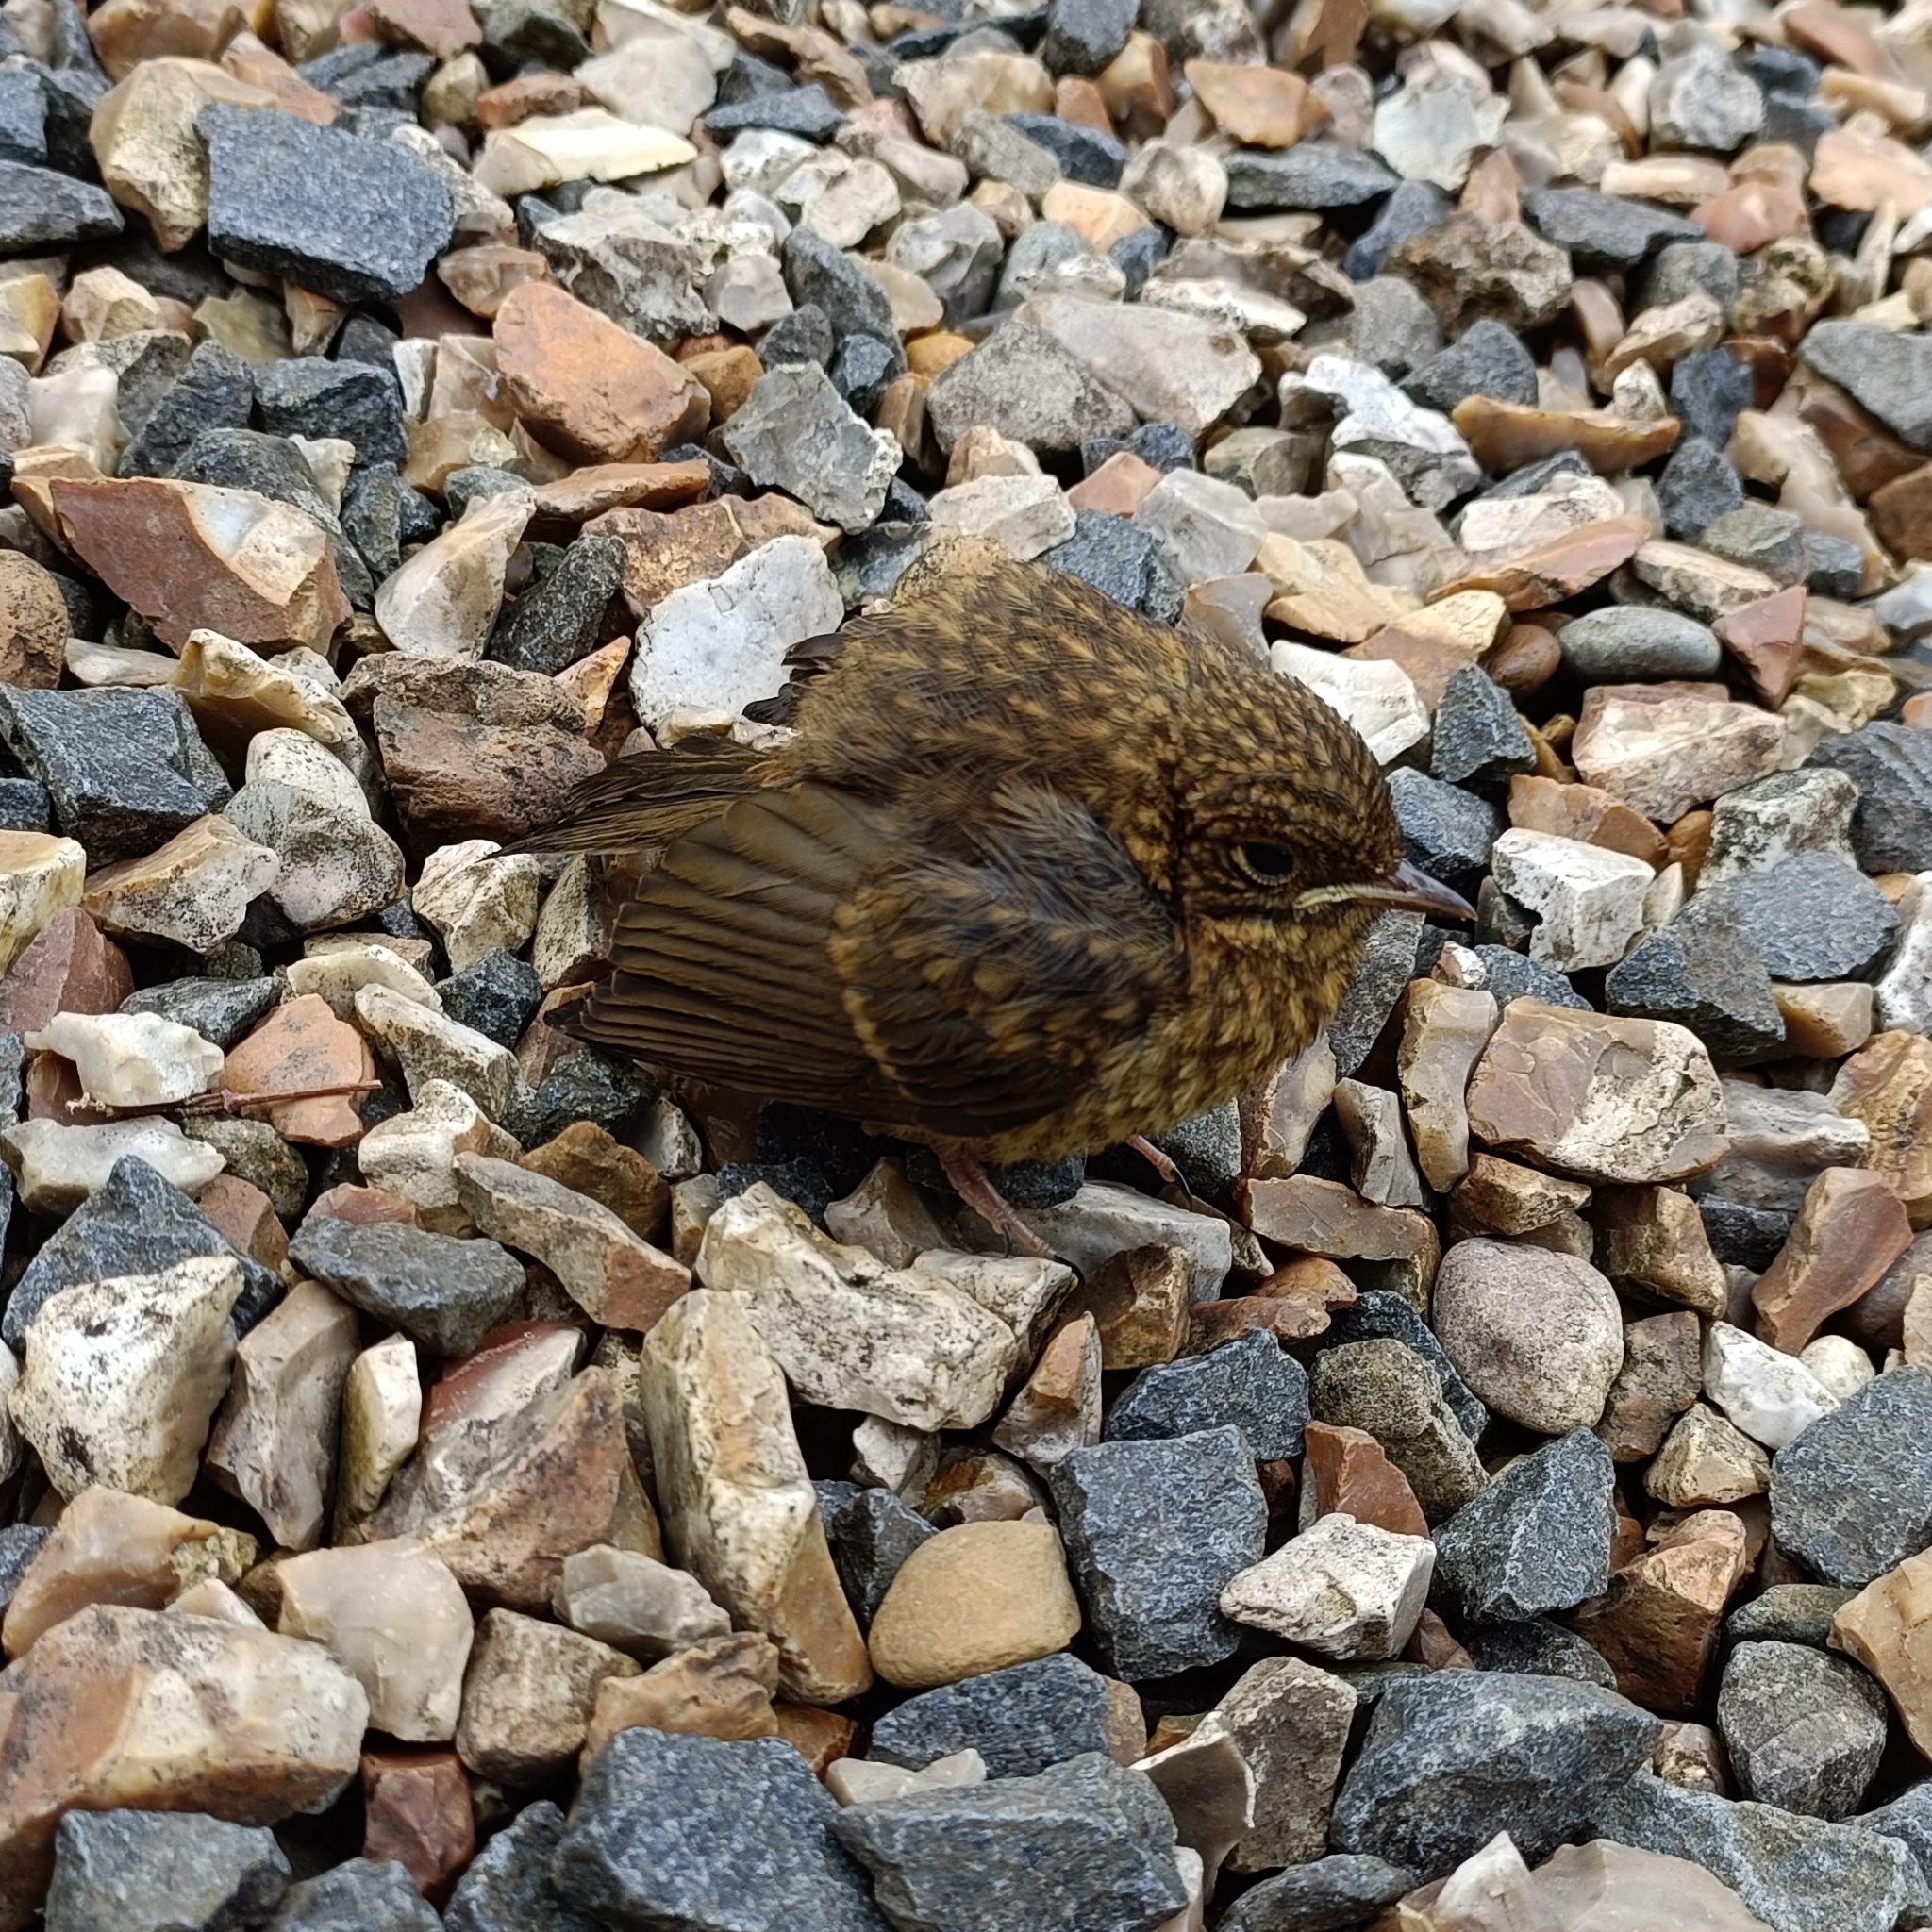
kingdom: Animalia
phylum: Chordata
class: Aves
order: Passeriformes
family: Muscicapidae
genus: Erithacus
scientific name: Erithacus rubecula
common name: European robin
